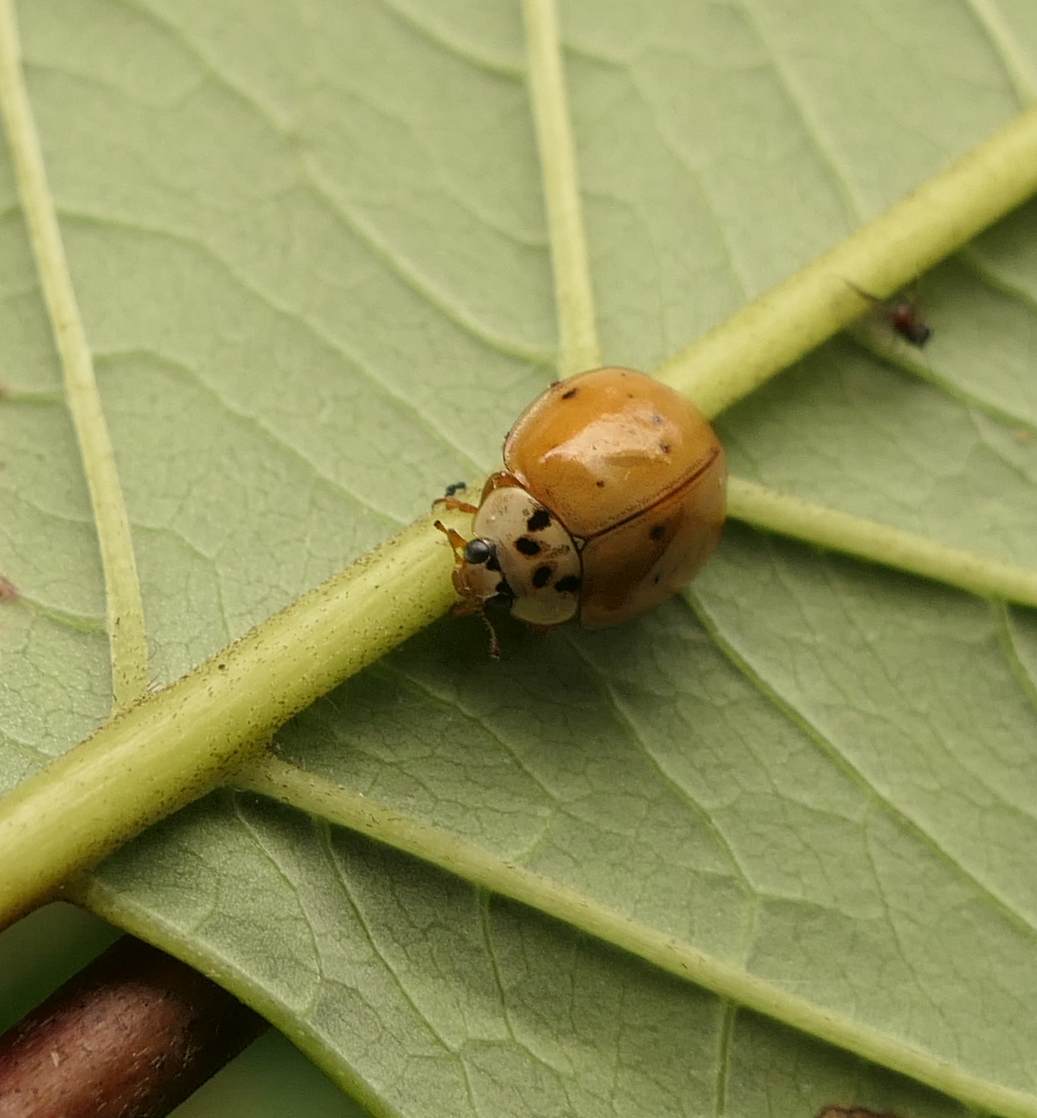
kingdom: Animalia
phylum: Arthropoda
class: Insecta
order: Coleoptera
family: Coccinellidae
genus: Harmonia
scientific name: Harmonia axyridis
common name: Harlequin ladybird
